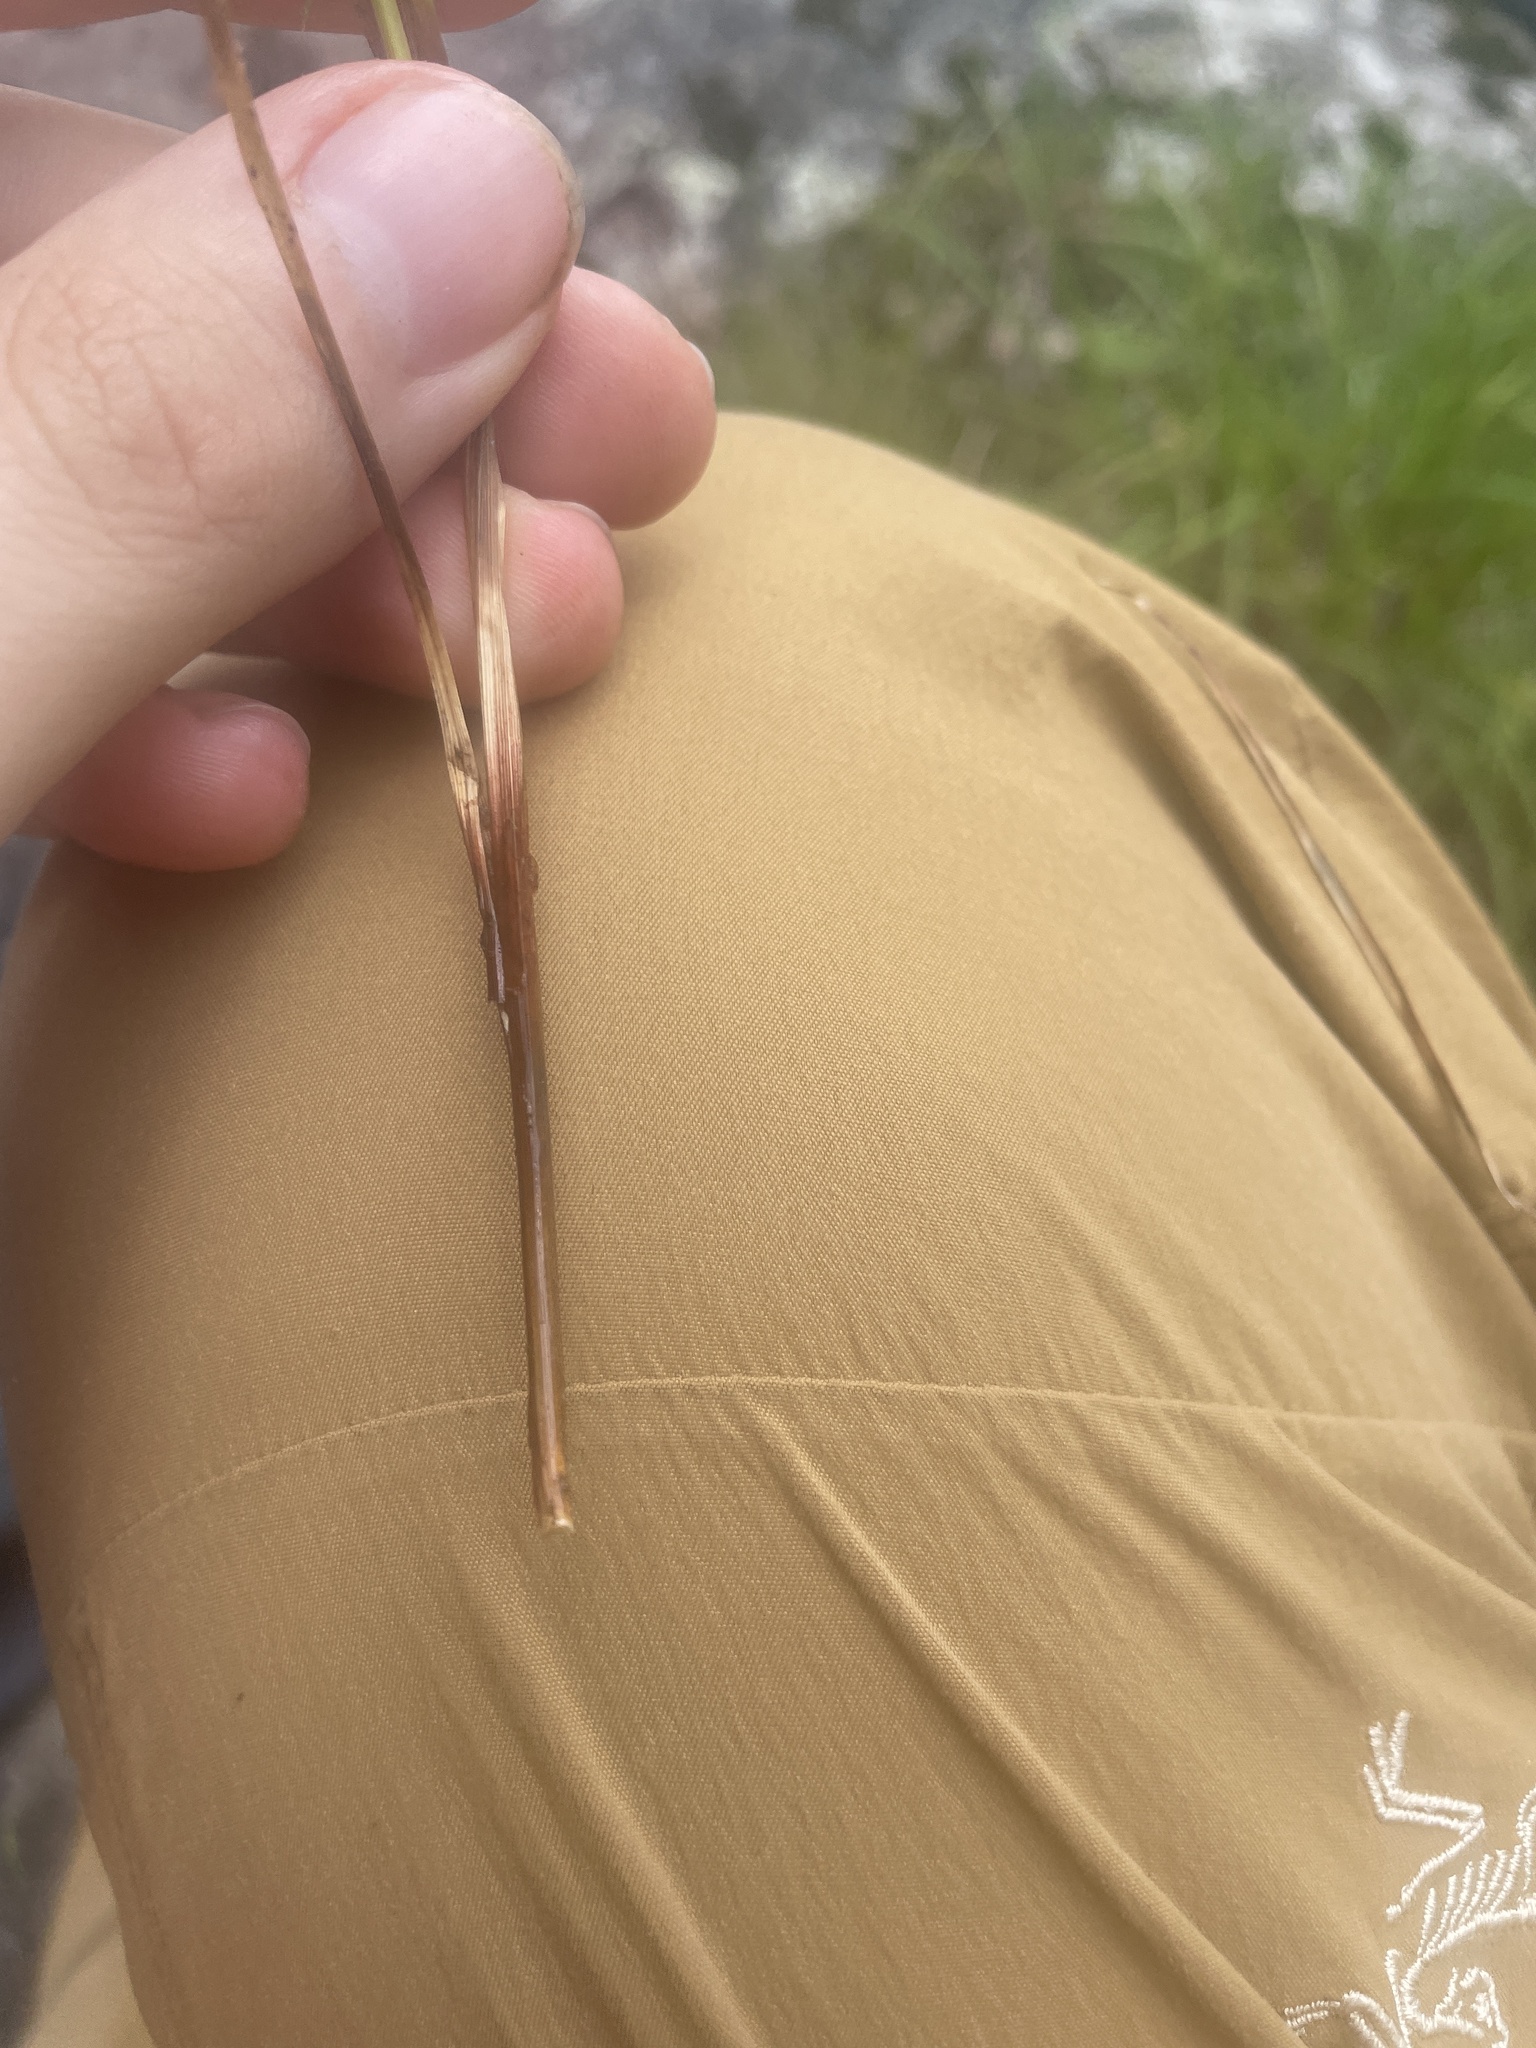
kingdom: Plantae
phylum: Tracheophyta
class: Liliopsida
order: Poales
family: Cyperaceae
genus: Carex
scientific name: Carex debilis
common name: White-edge sedge
